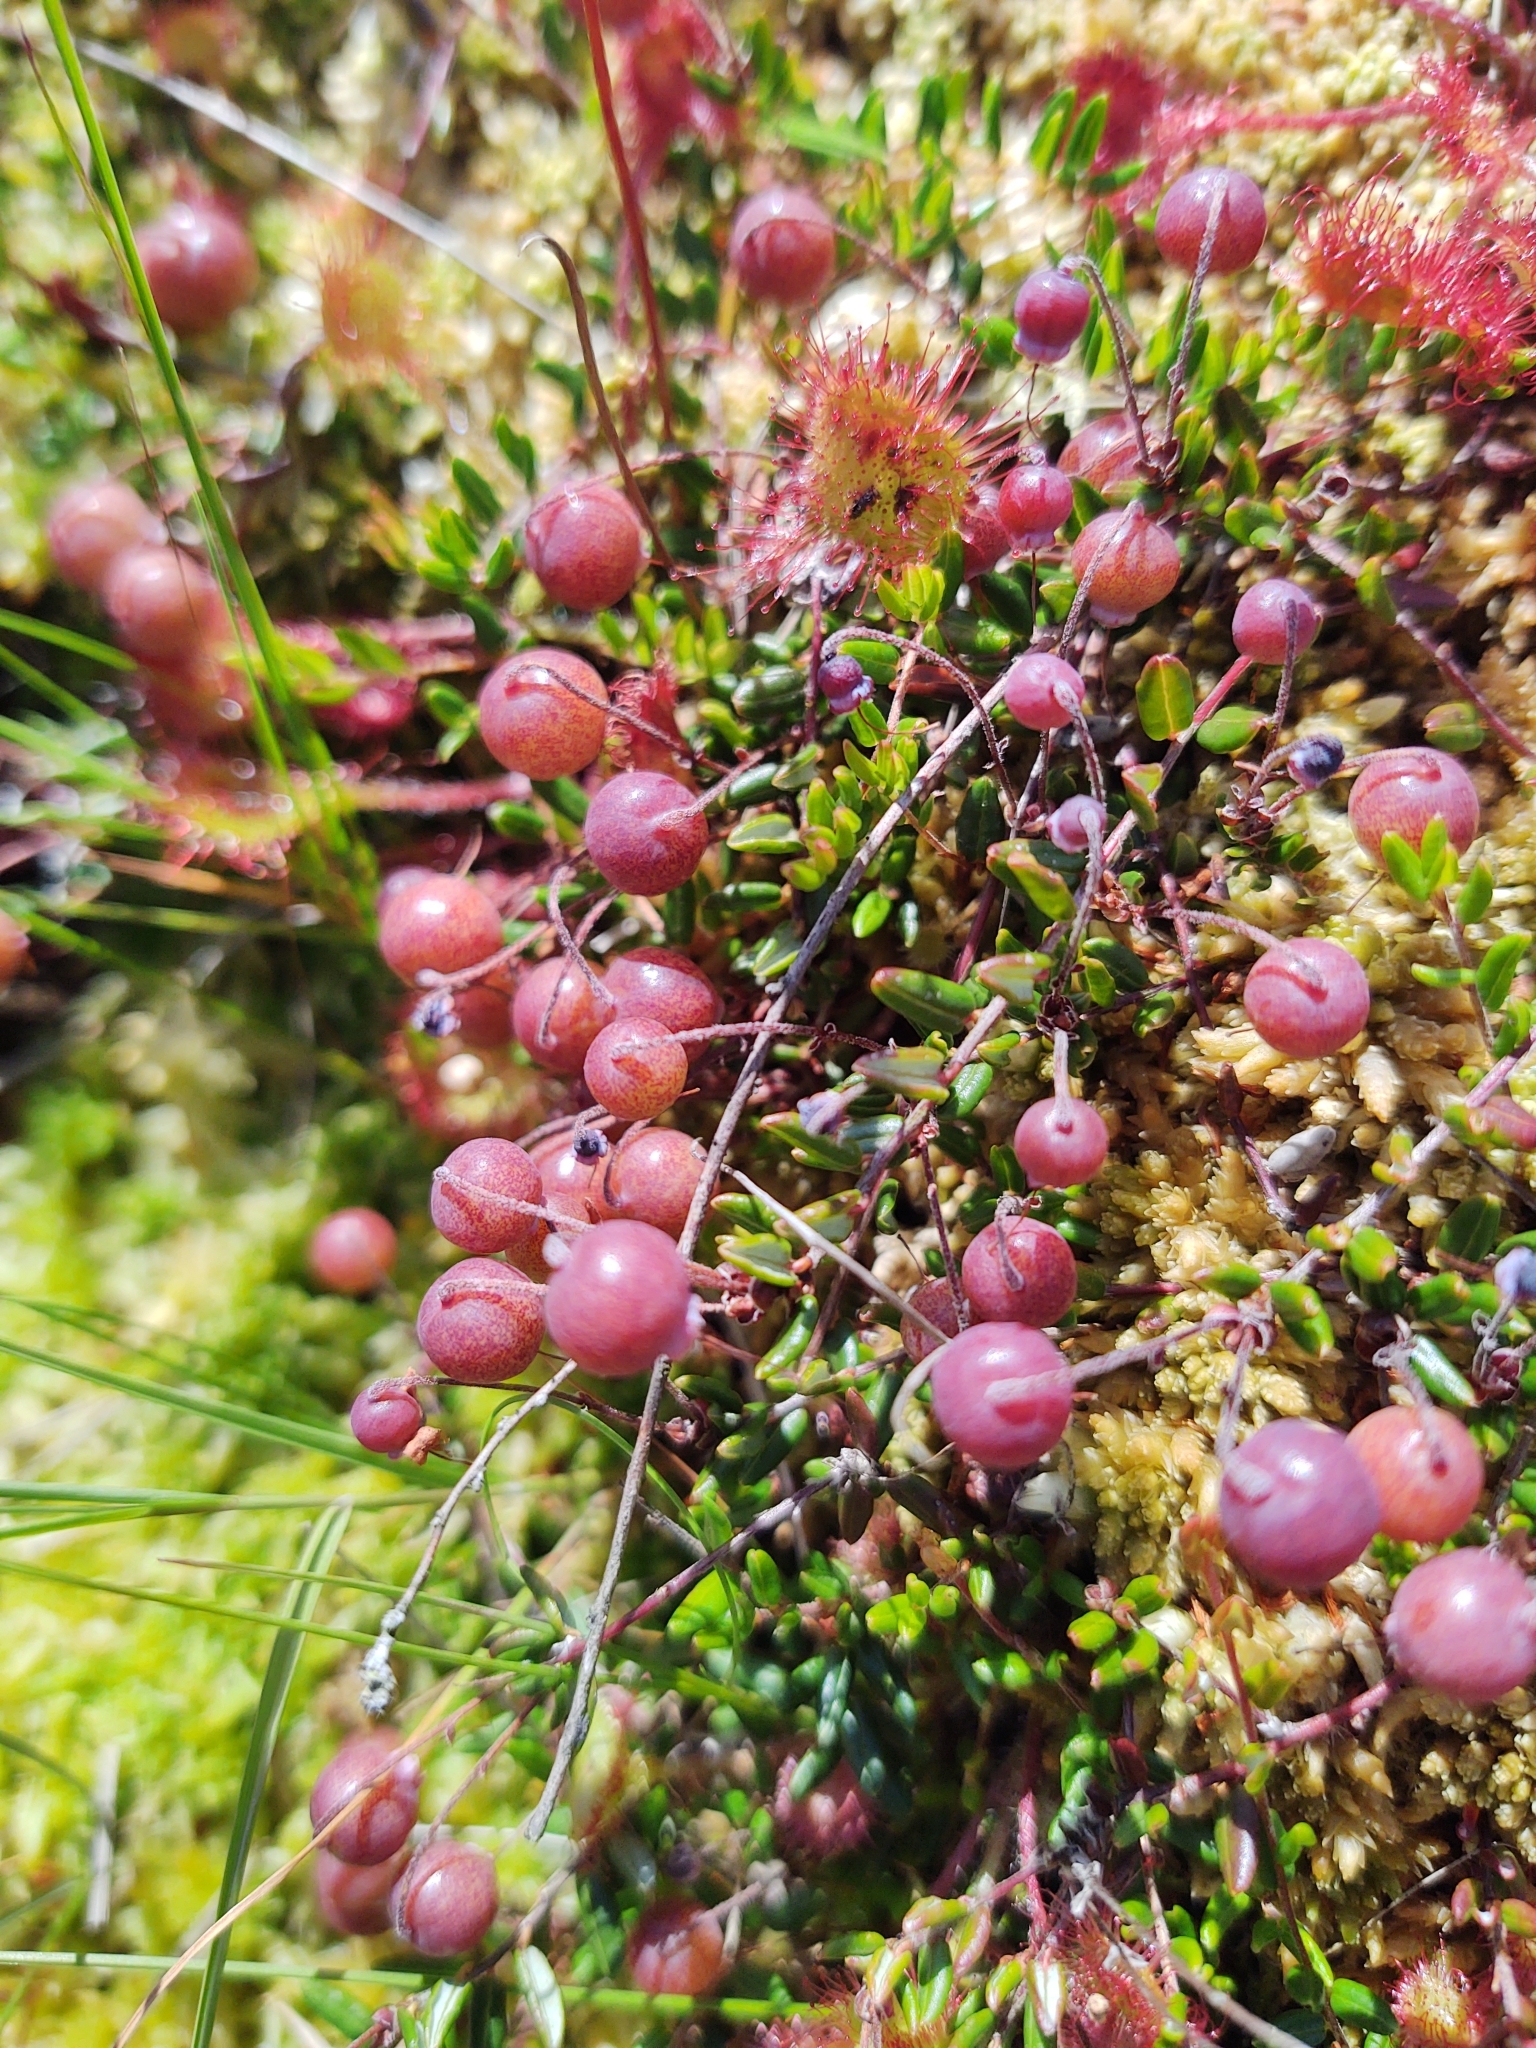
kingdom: Plantae
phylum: Tracheophyta
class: Magnoliopsida
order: Ericales
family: Ericaceae
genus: Vaccinium
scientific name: Vaccinium oxycoccos
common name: Cranberry
